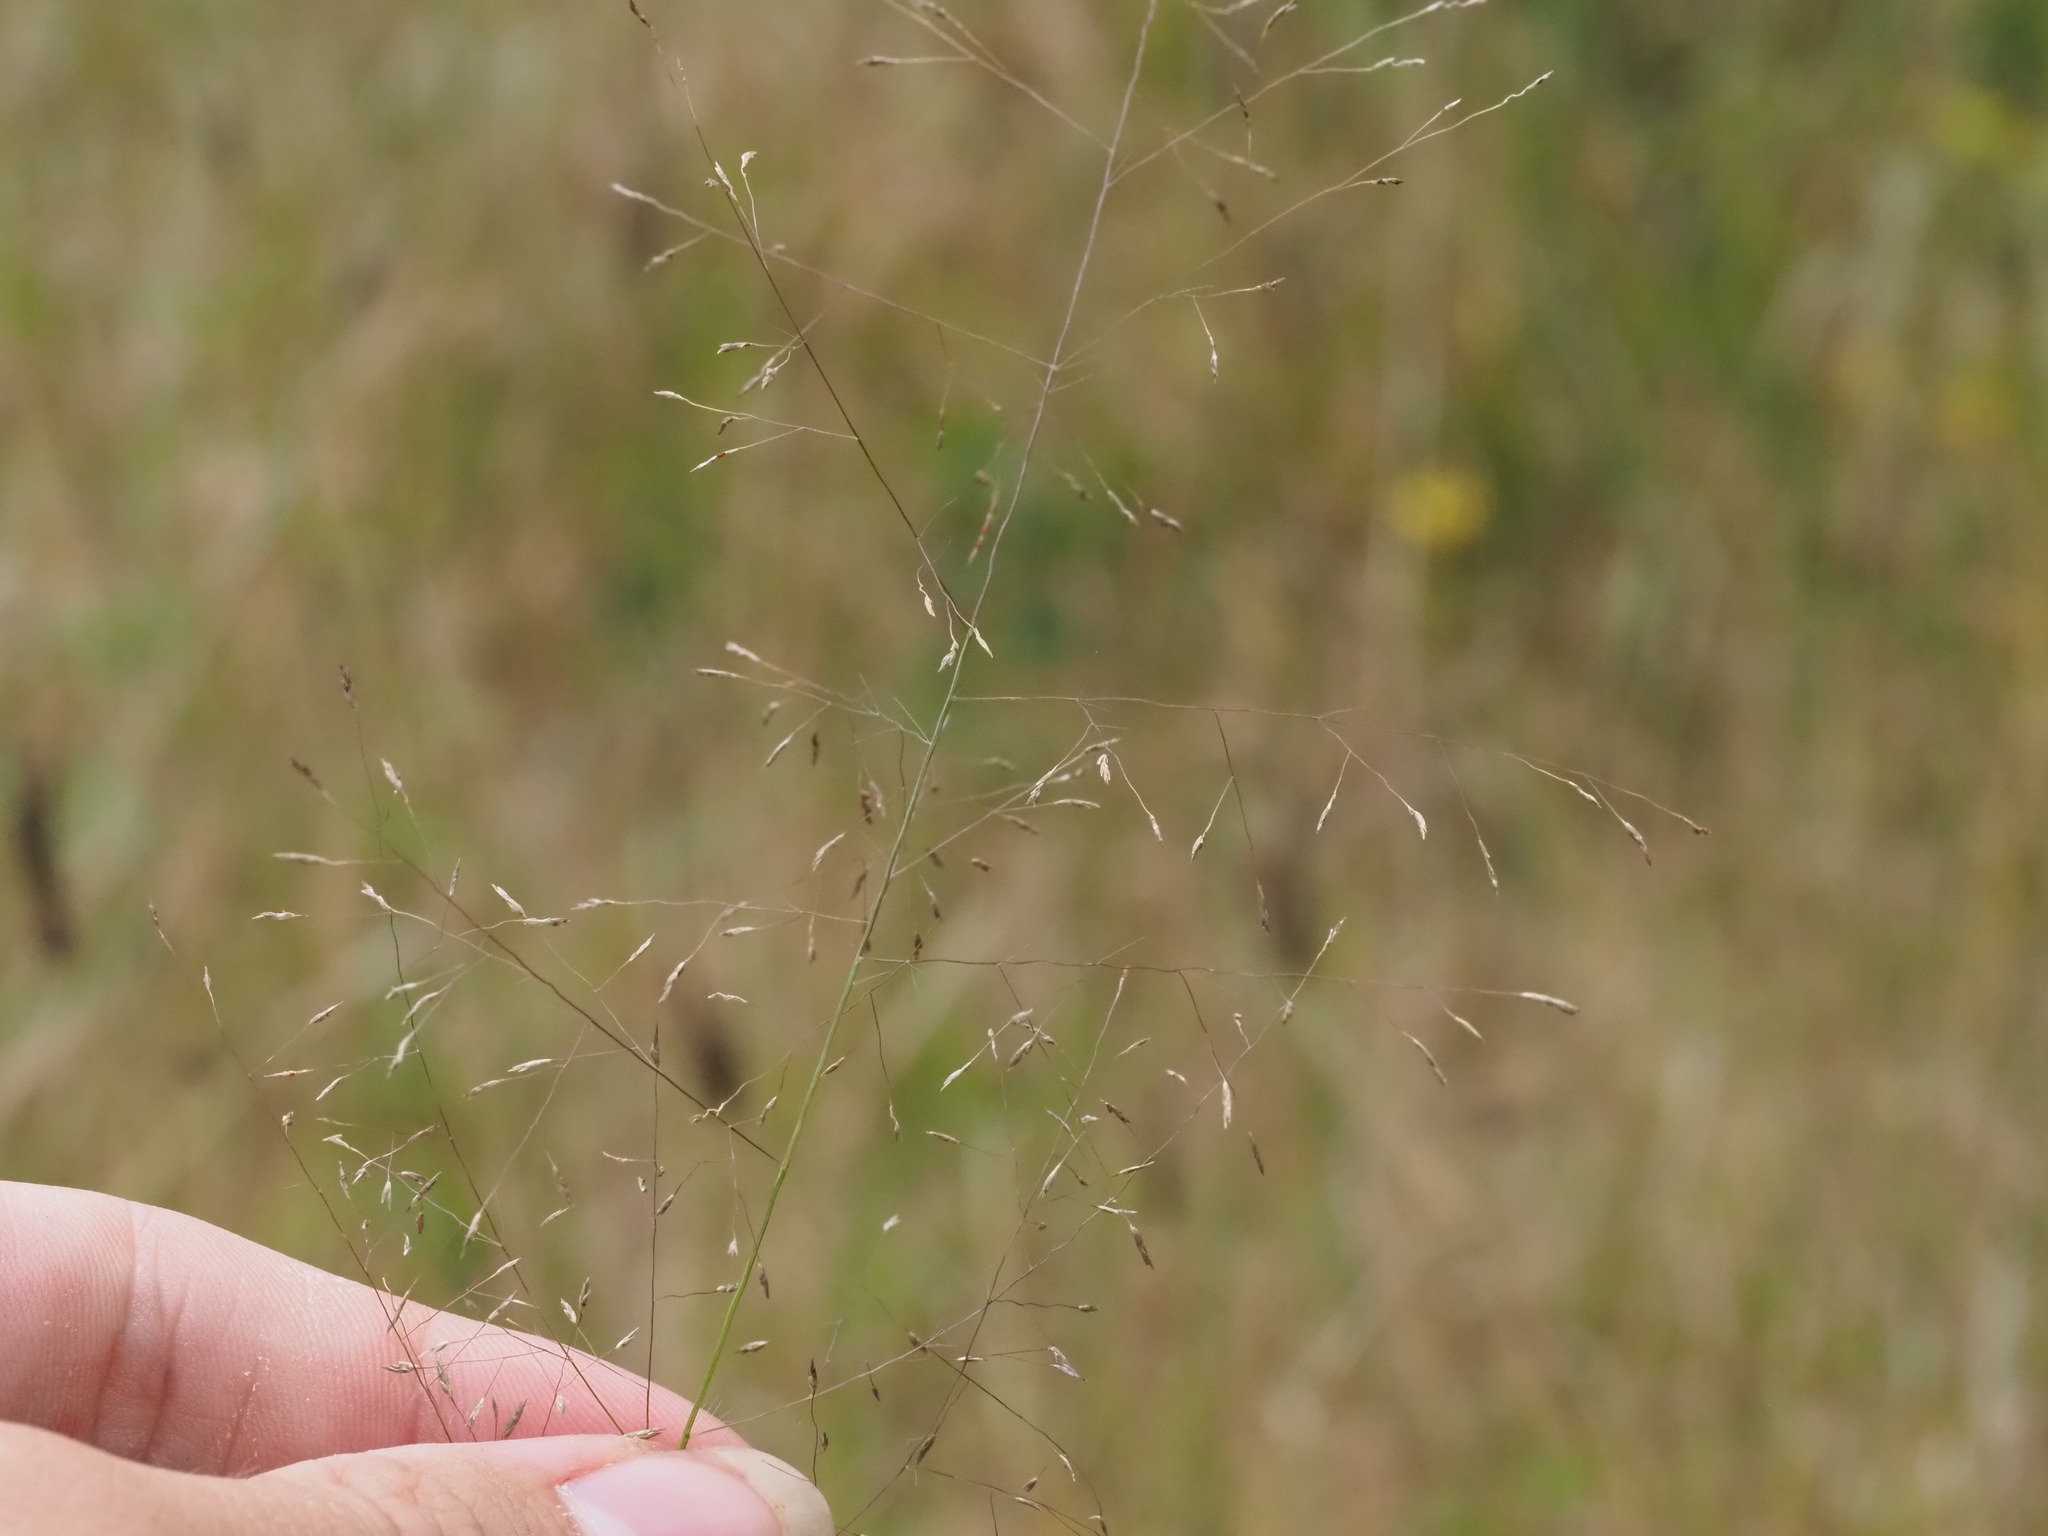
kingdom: Plantae
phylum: Tracheophyta
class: Liliopsida
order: Poales
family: Poaceae
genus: Eragrostis
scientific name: Eragrostis pilosa
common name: Indian lovegrass
